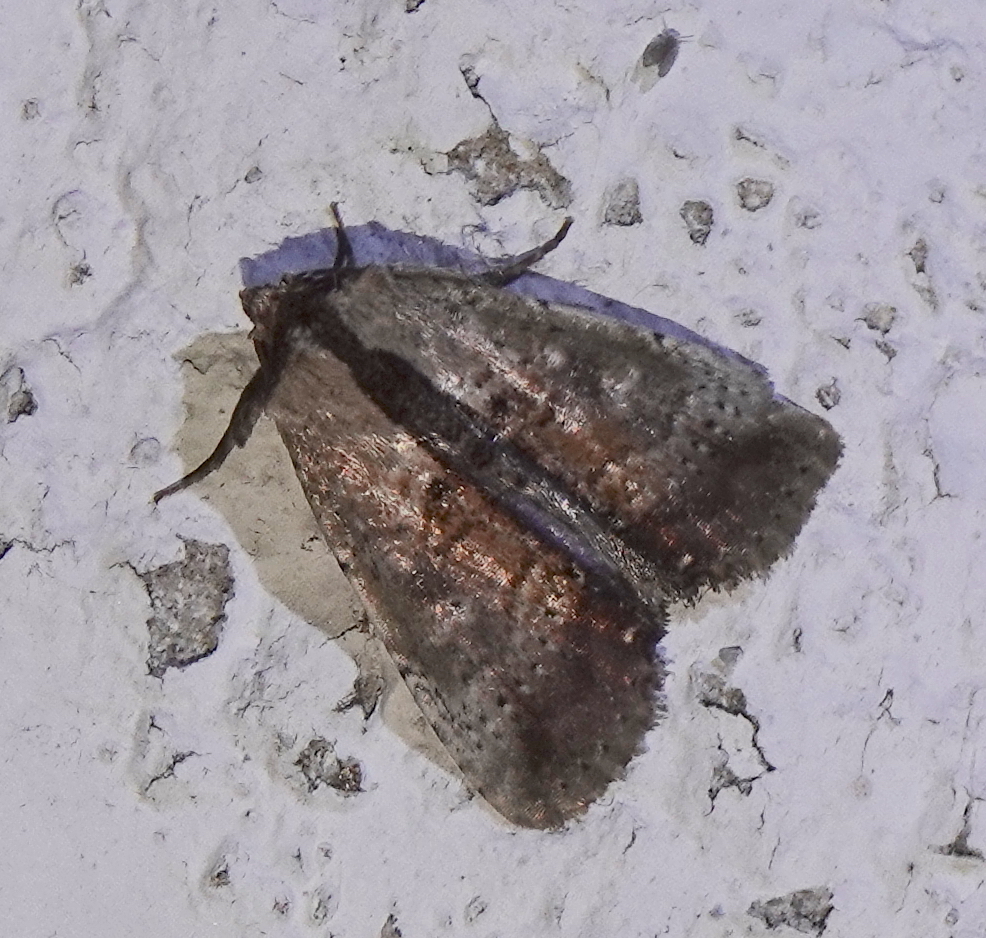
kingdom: Animalia
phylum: Arthropoda
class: Insecta
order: Lepidoptera
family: Noctuidae
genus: Perigea
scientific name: Perigea eguigureni
